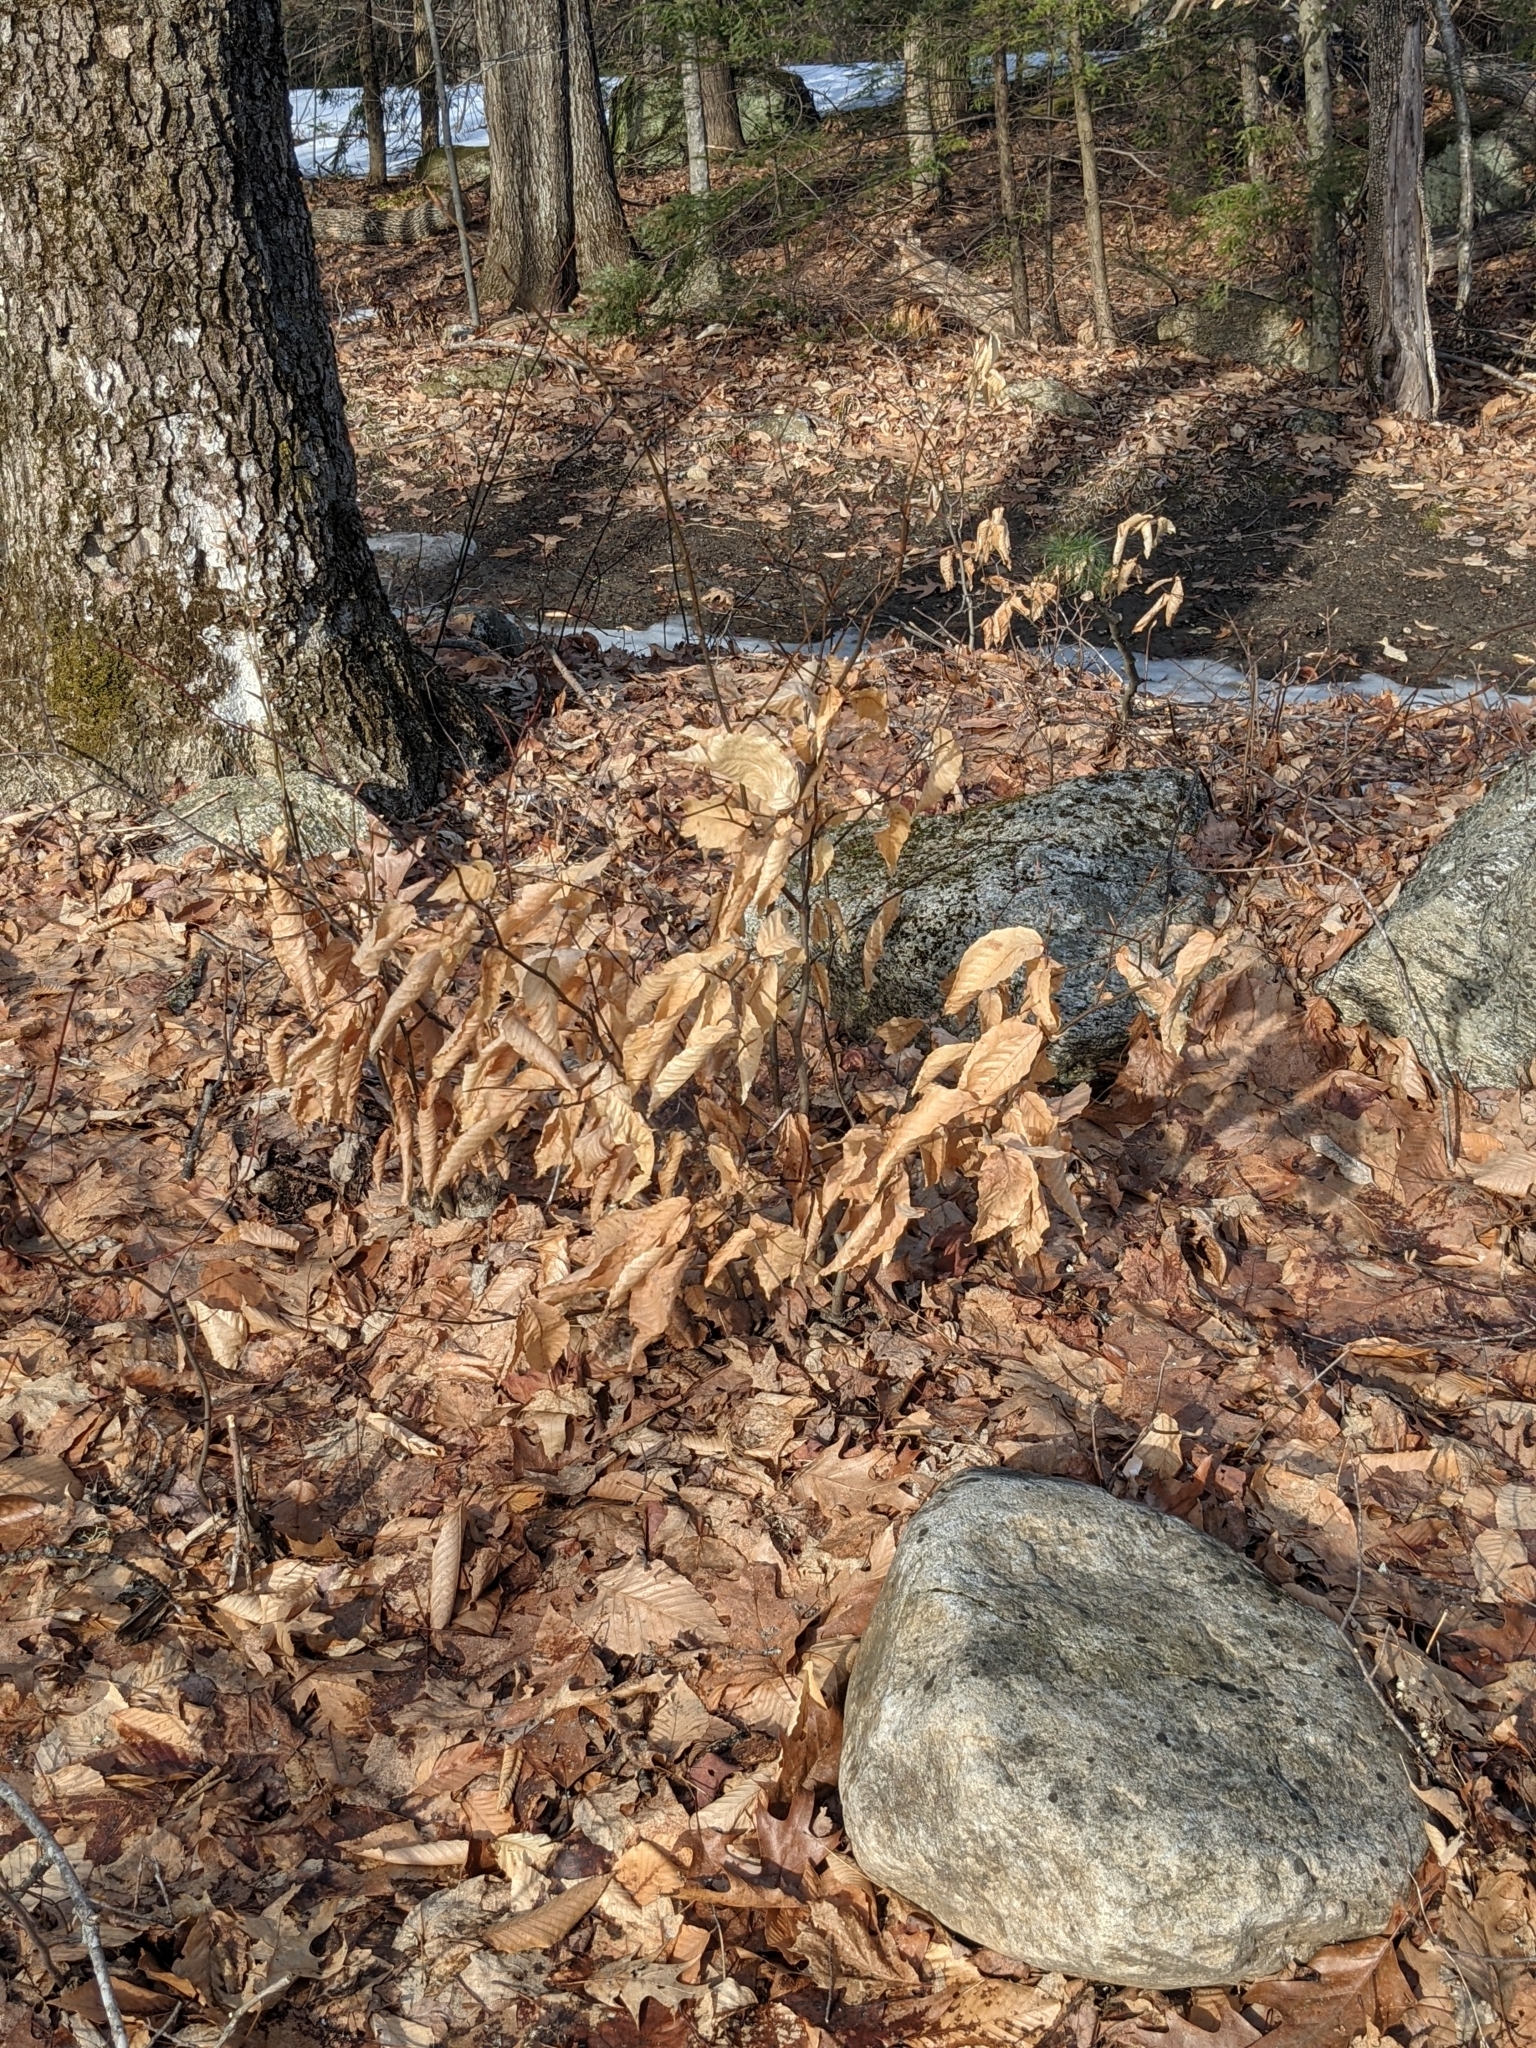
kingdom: Plantae
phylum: Tracheophyta
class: Magnoliopsida
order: Fagales
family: Fagaceae
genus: Fagus
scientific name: Fagus grandifolia
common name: American beech
